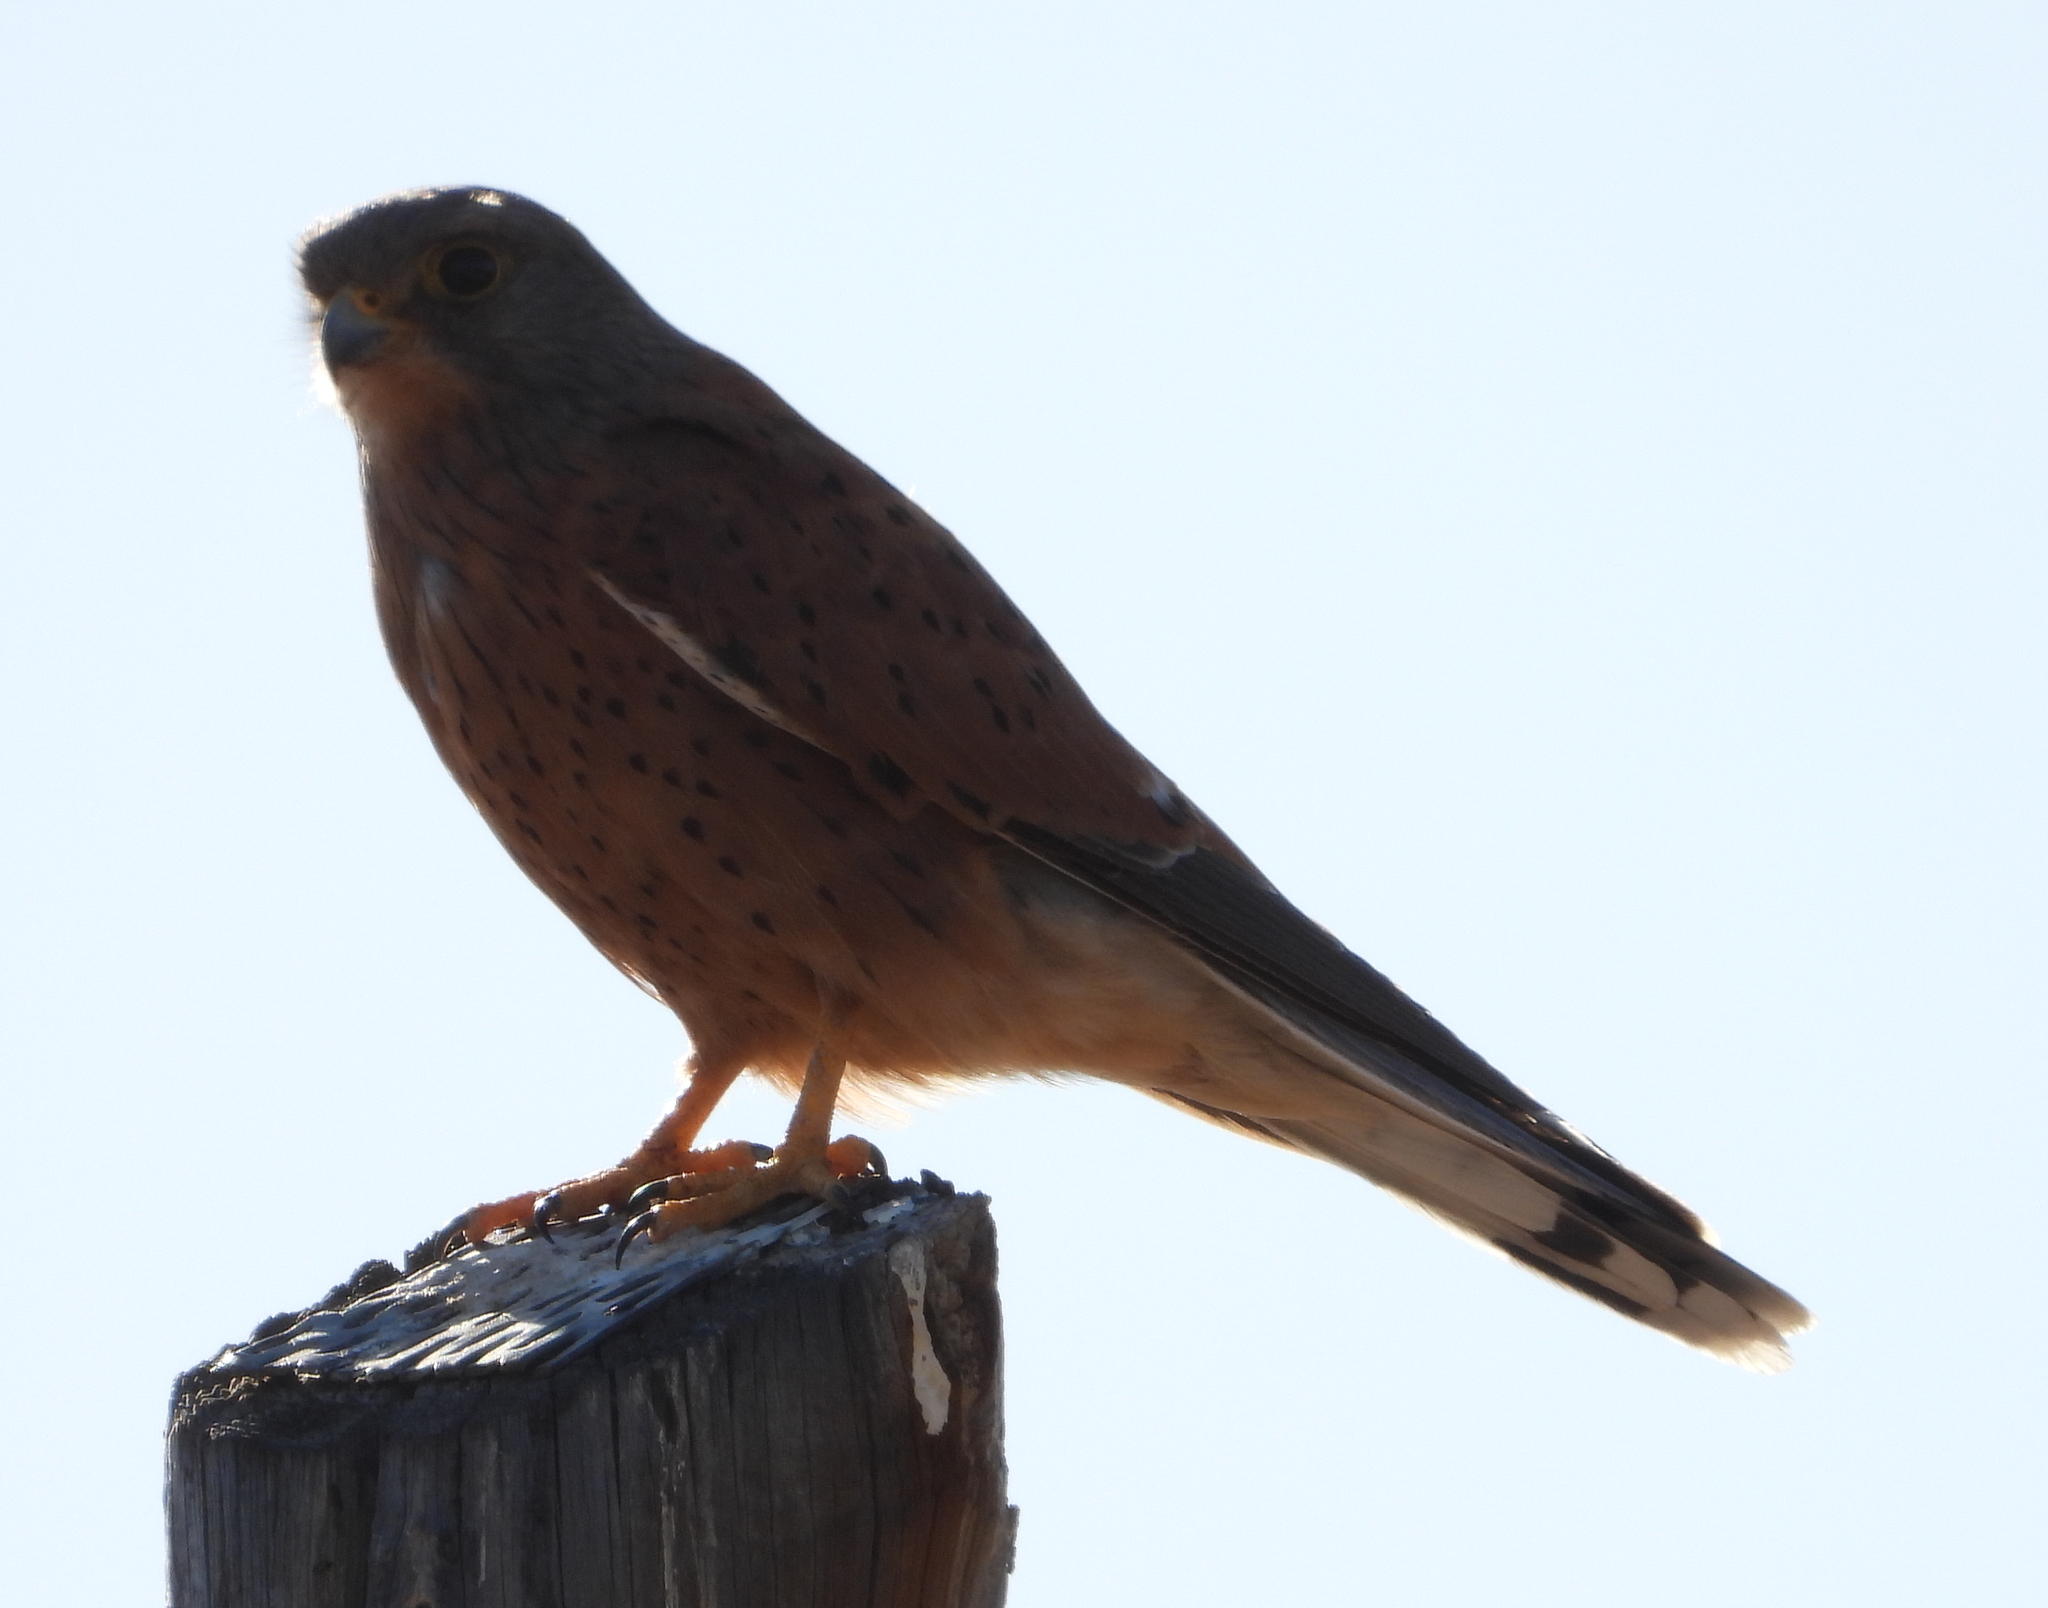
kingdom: Animalia
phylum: Chordata
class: Aves
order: Falconiformes
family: Falconidae
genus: Falco
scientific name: Falco rupicolus
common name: Rock kestrel
